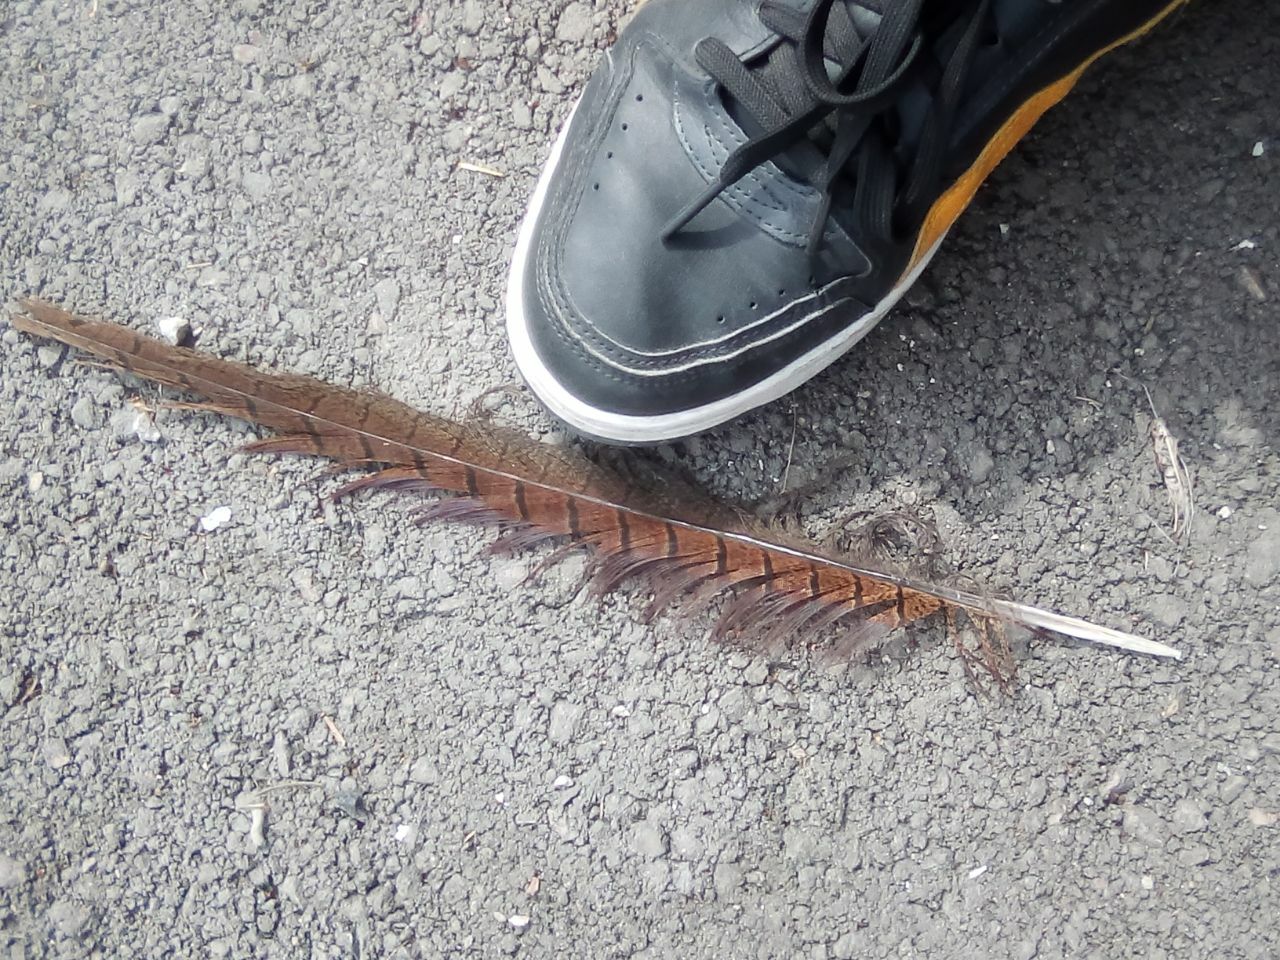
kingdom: Animalia
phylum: Chordata
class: Aves
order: Galliformes
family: Phasianidae
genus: Phasianus
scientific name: Phasianus colchicus
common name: Common pheasant
